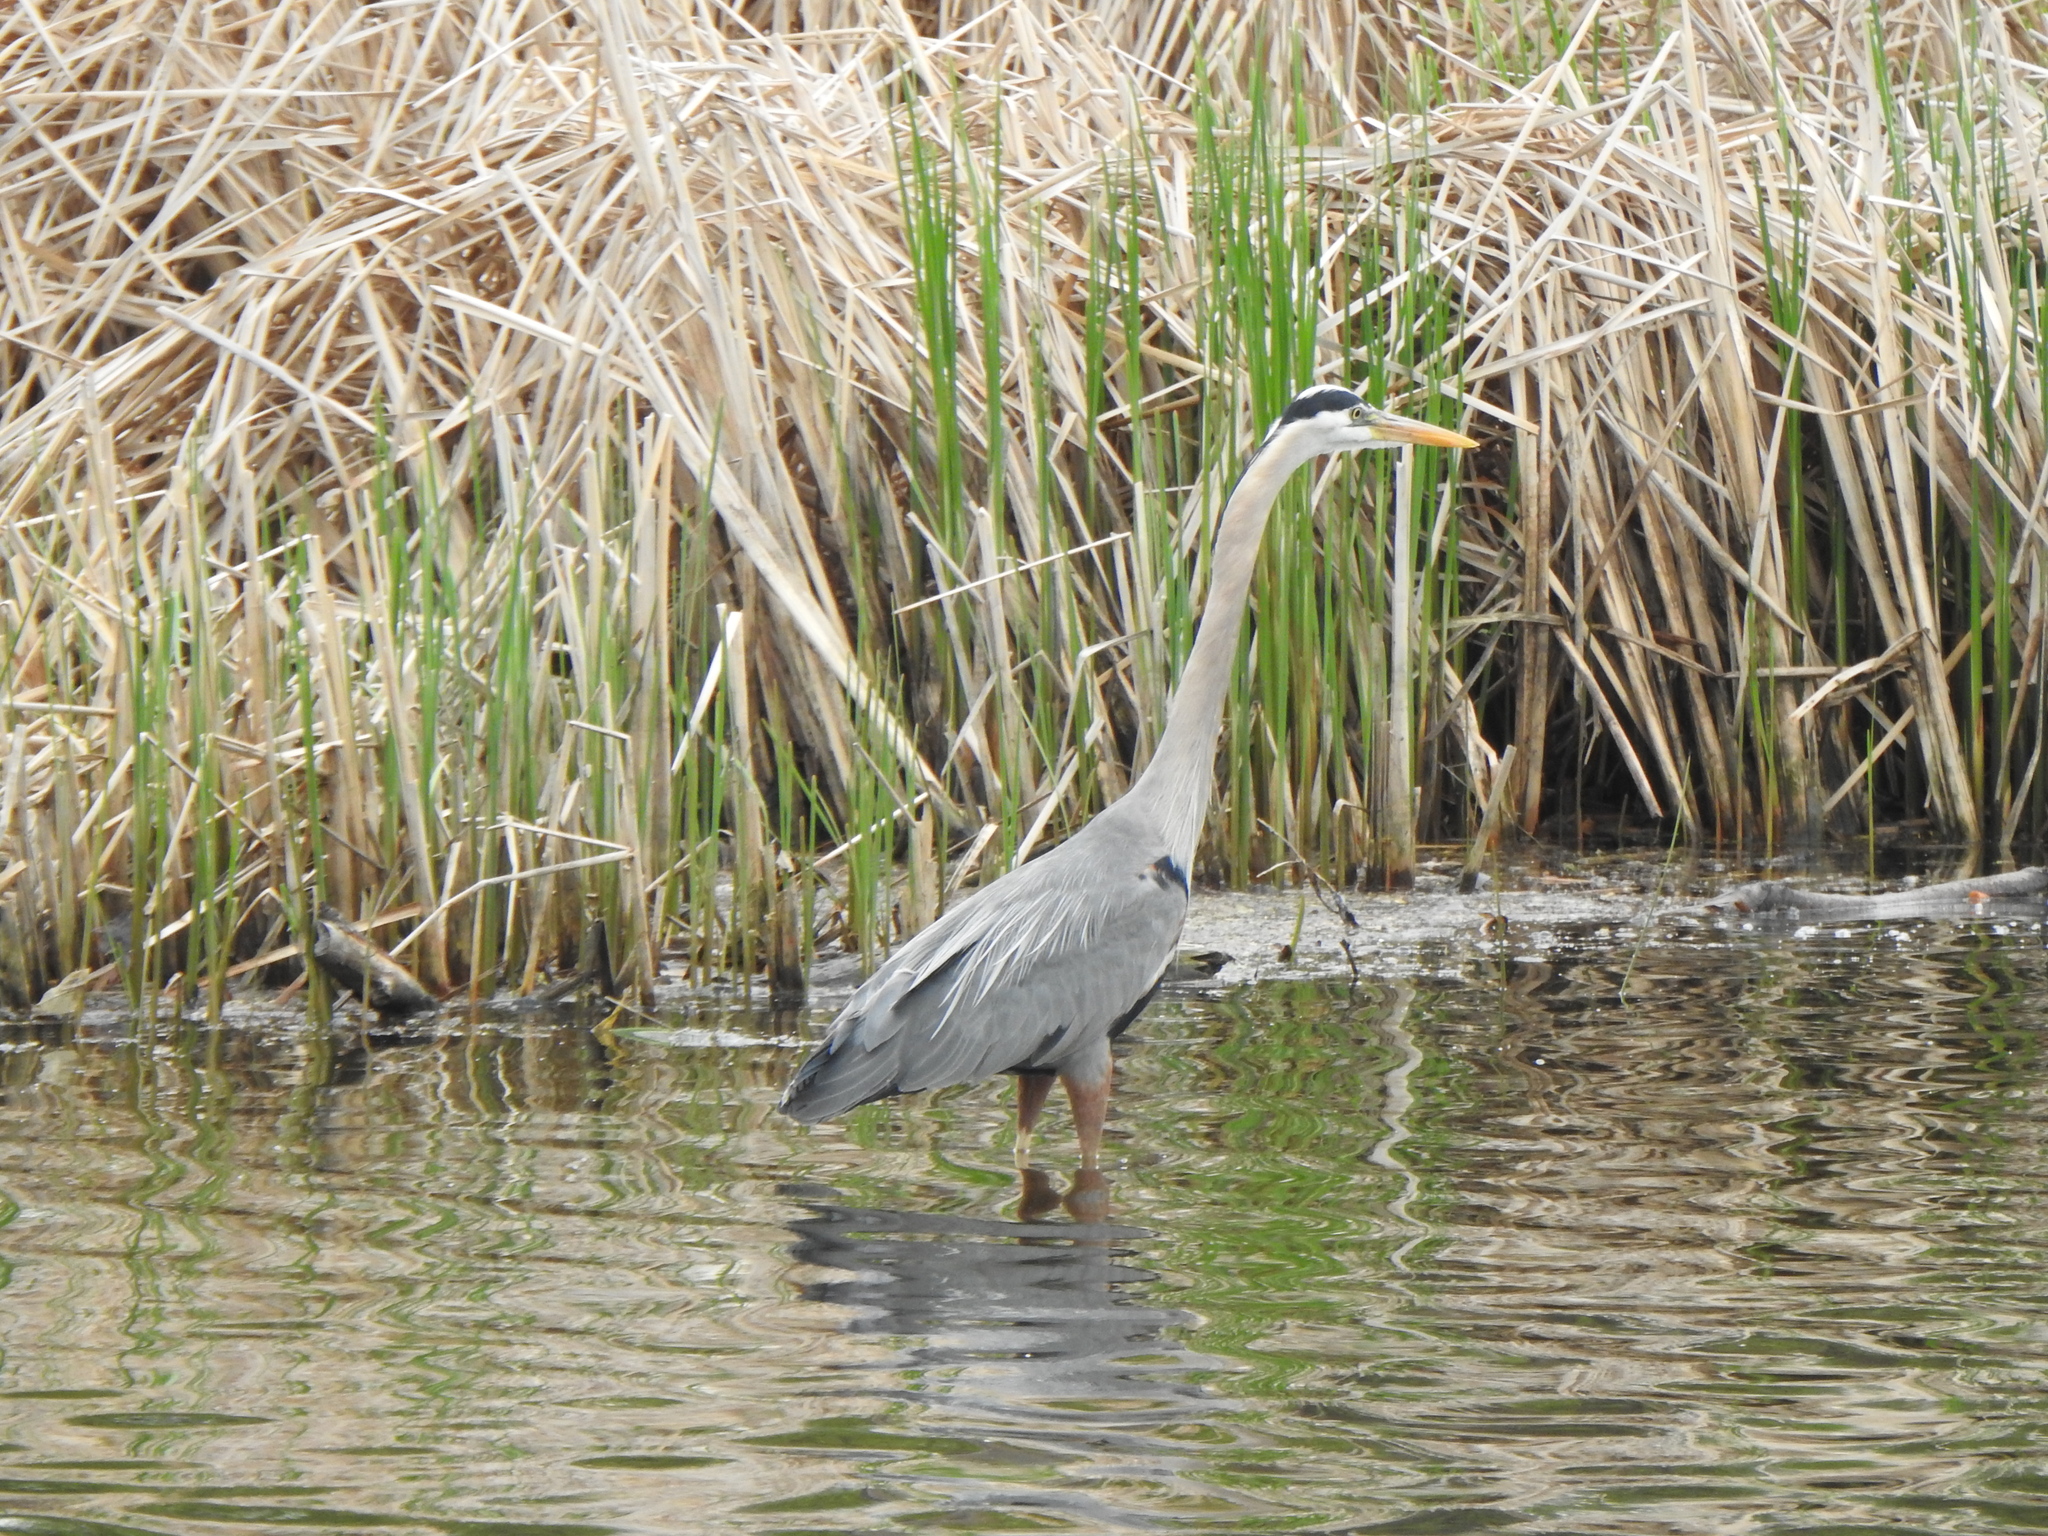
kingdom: Animalia
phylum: Chordata
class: Aves
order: Pelecaniformes
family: Ardeidae
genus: Ardea
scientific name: Ardea herodias
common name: Great blue heron
